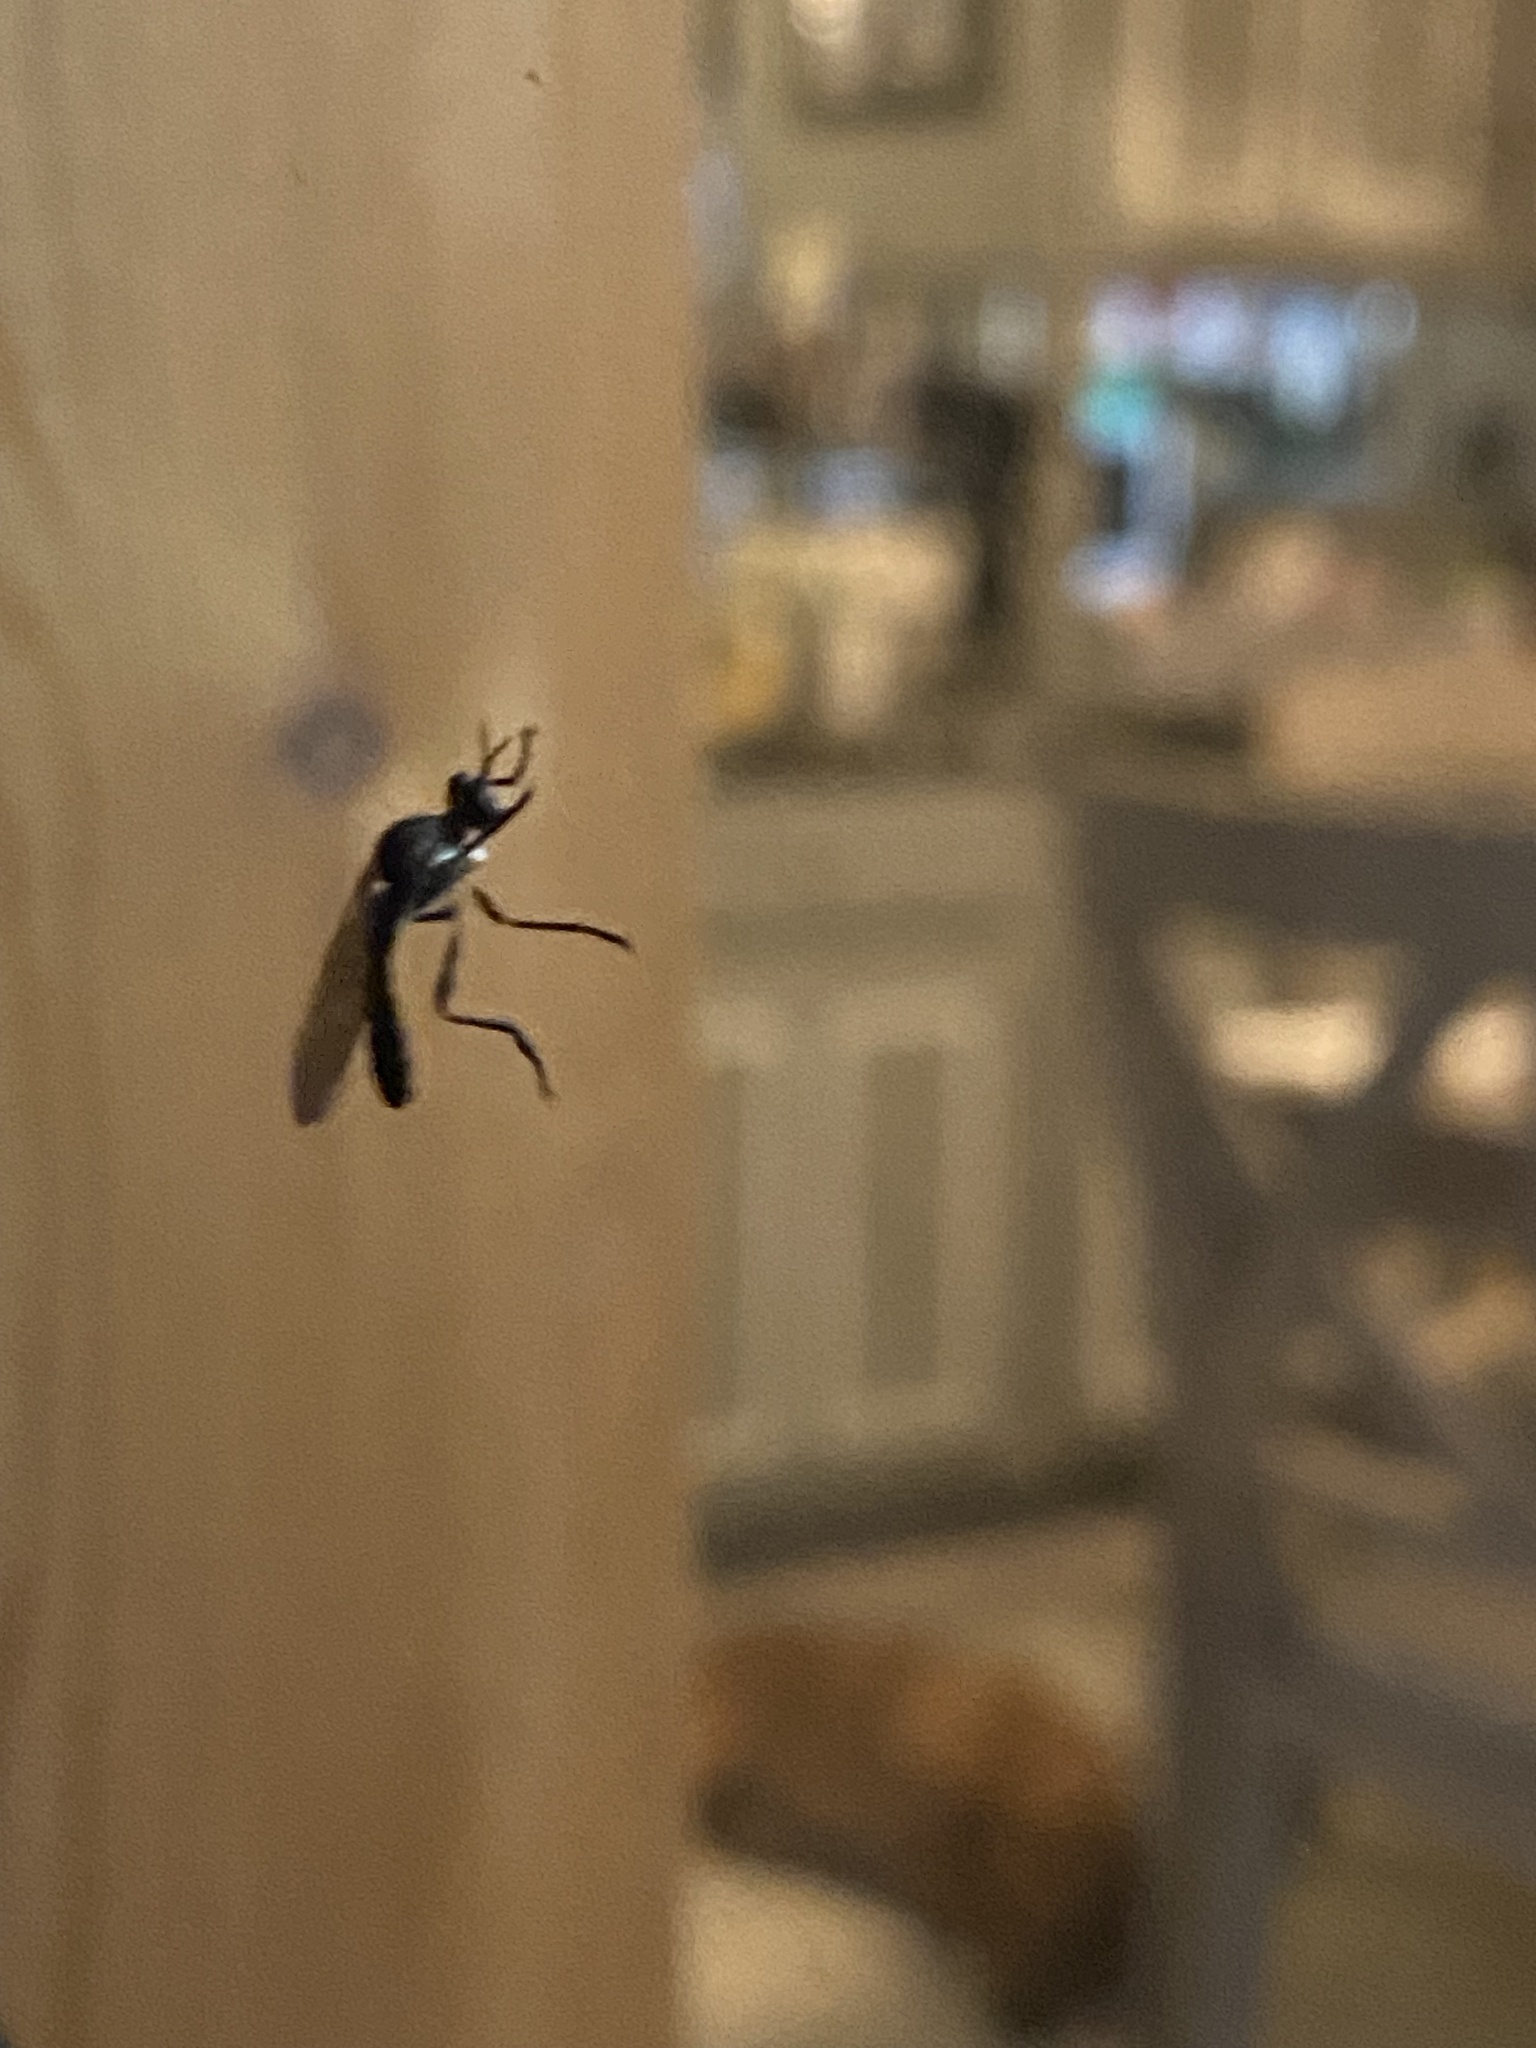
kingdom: Animalia
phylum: Arthropoda
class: Insecta
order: Diptera
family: Asilidae
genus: Dioctria
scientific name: Dioctria hyalipennis
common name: Stripe-legged robberfly
